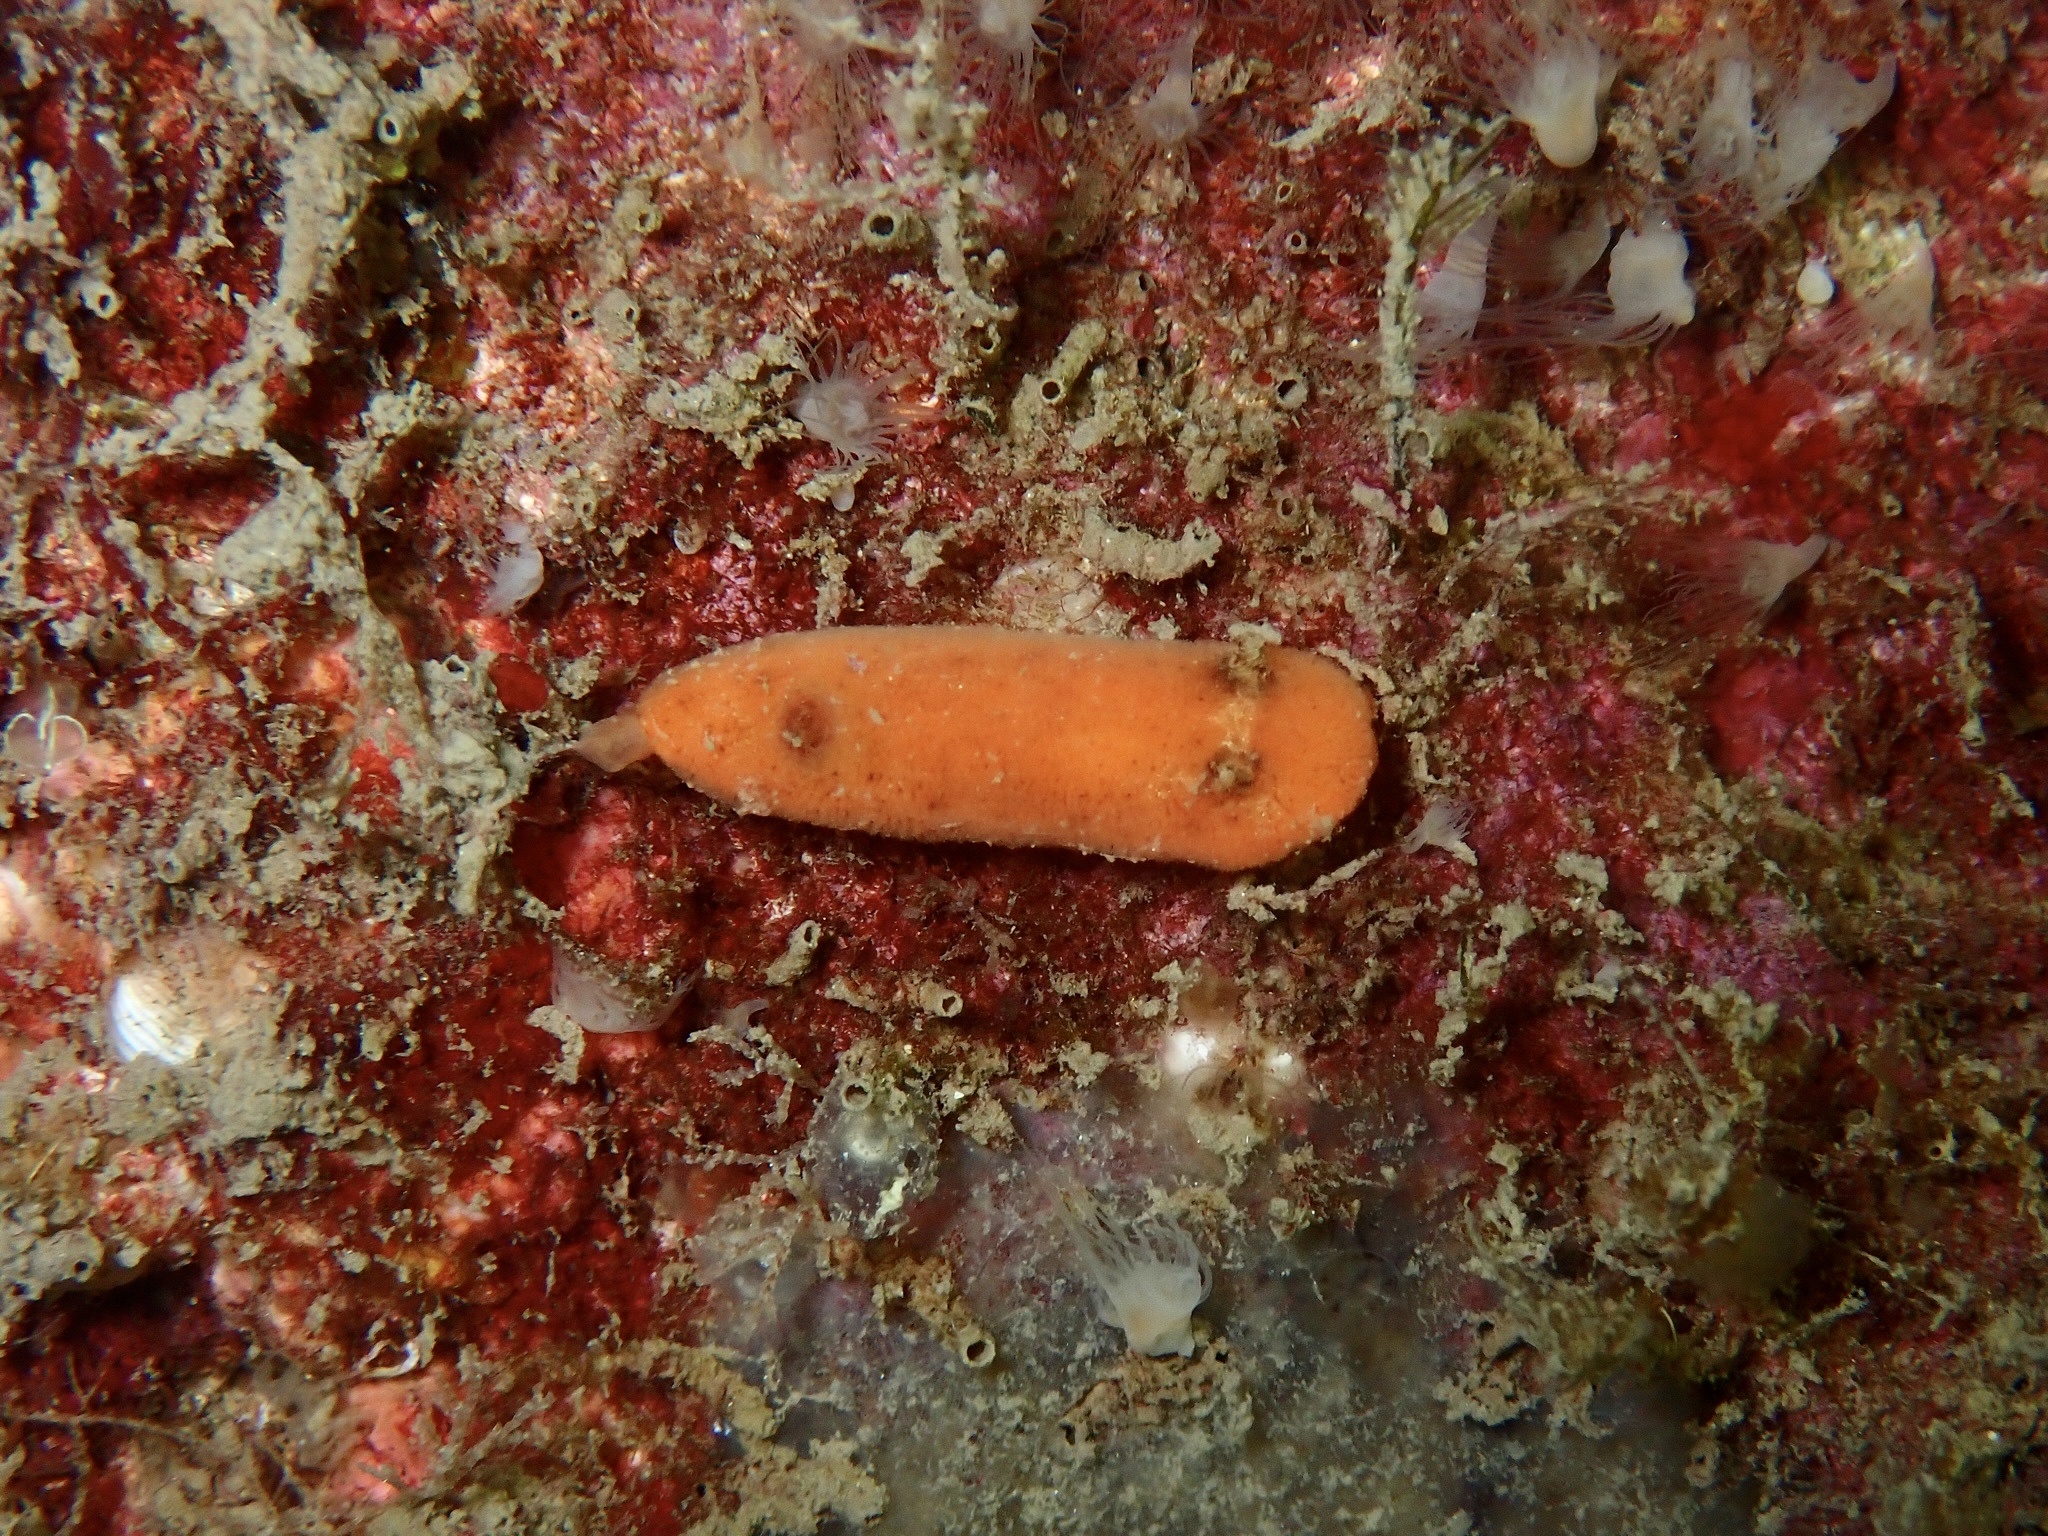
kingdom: Animalia
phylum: Mollusca
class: Gastropoda
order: Nudibranchia
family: Discodorididae
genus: Rostanga
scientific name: Rostanga rubra
